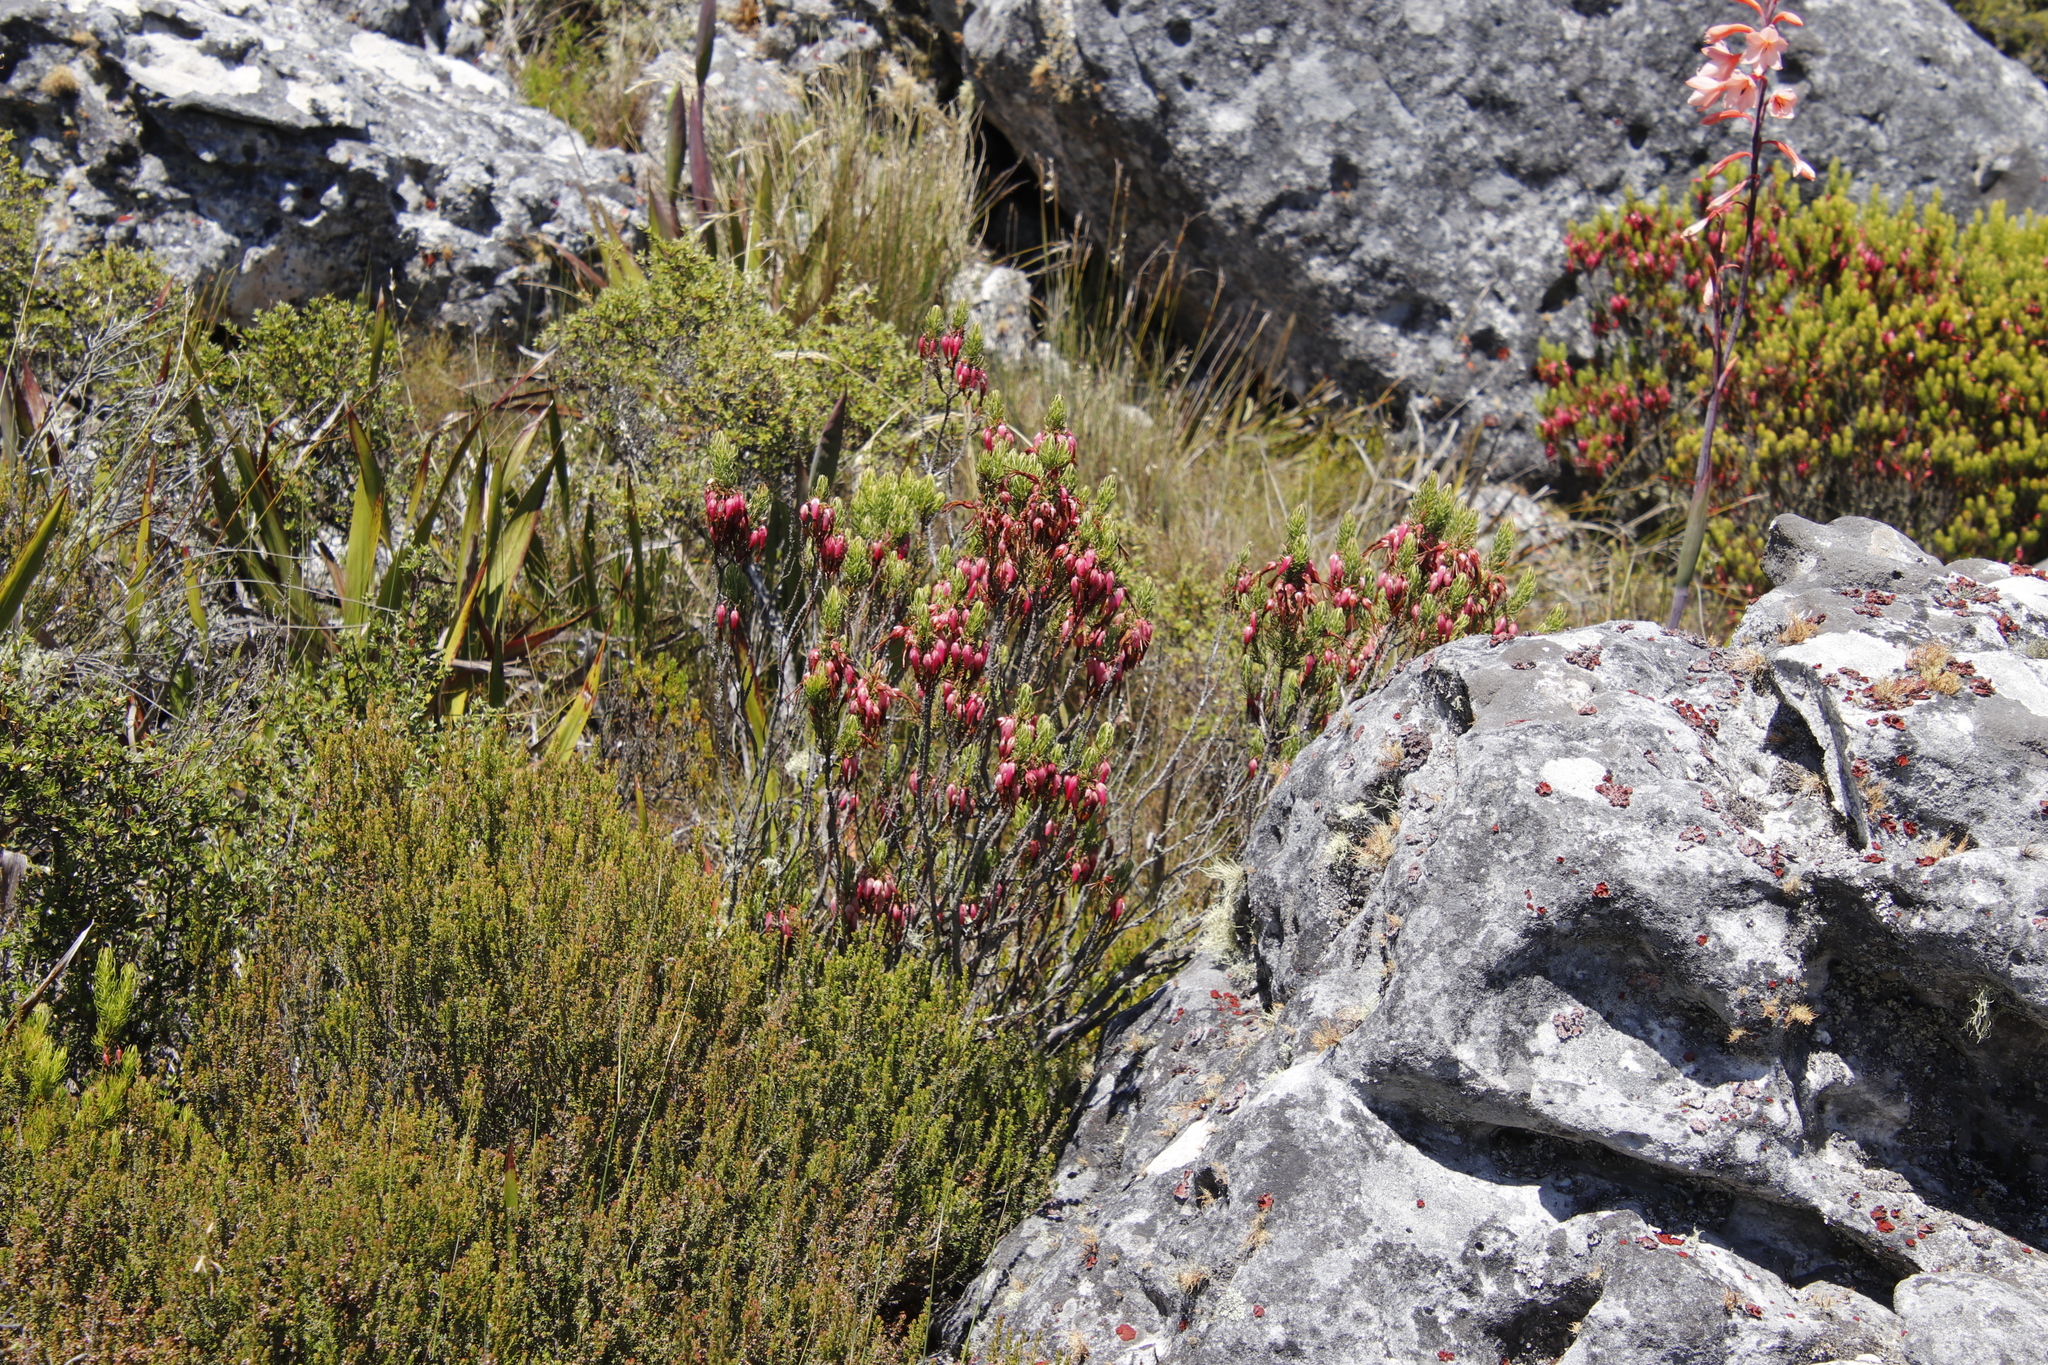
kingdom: Plantae
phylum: Tracheophyta
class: Magnoliopsida
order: Ericales
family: Ericaceae
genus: Erica
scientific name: Erica plukenetii
